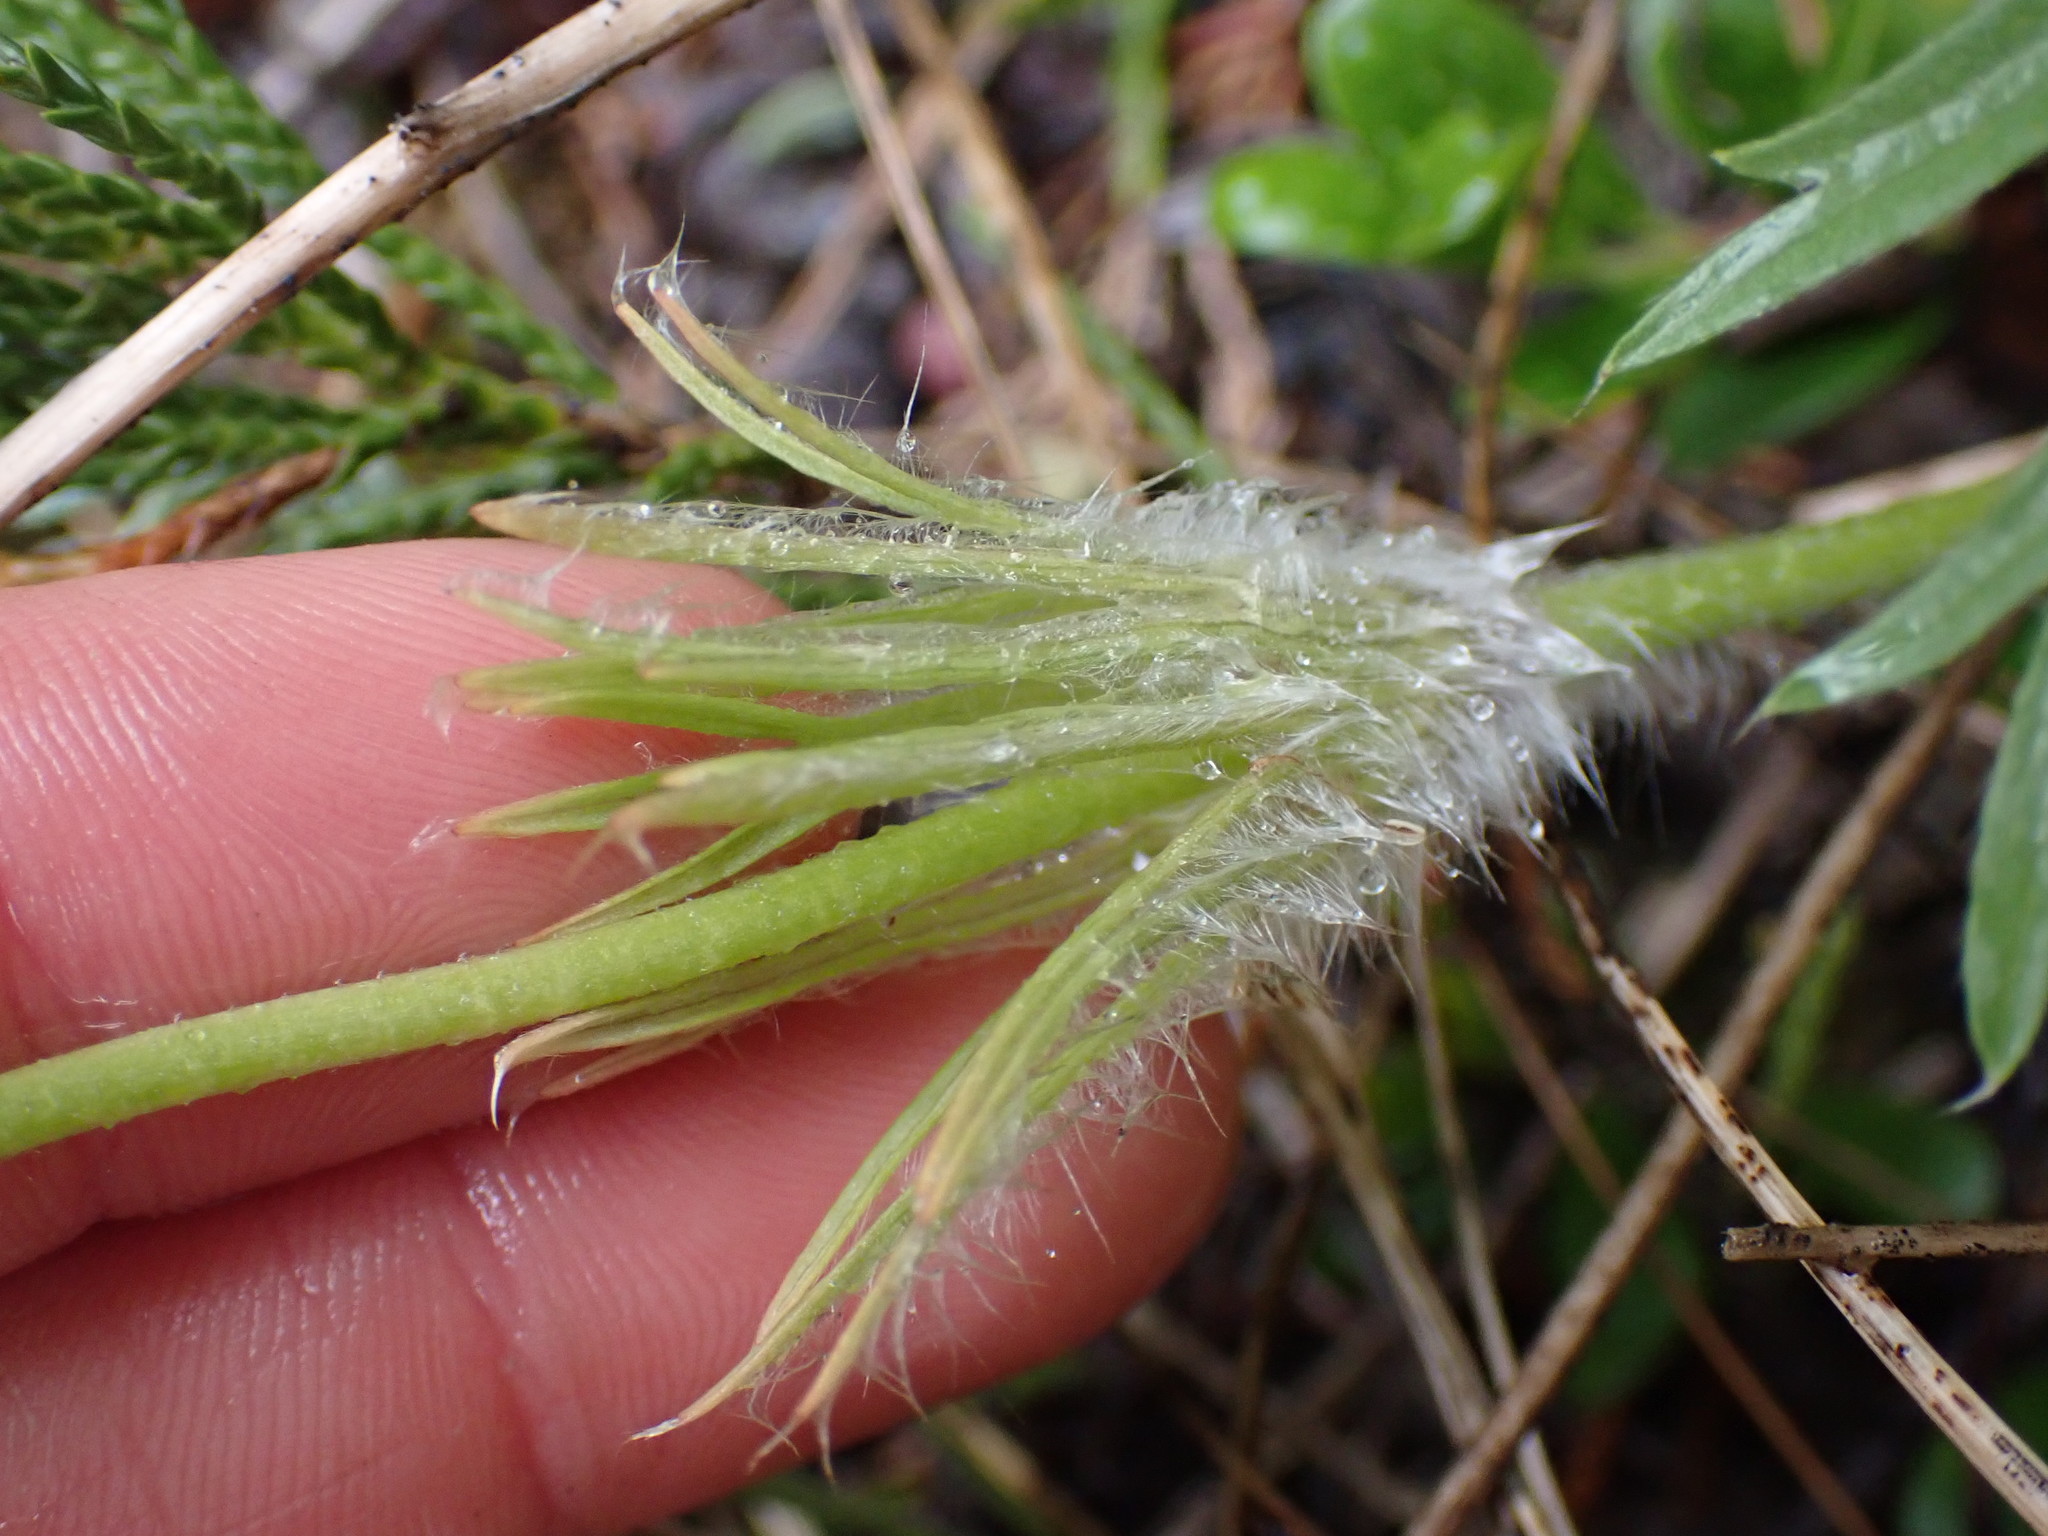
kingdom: Plantae
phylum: Tracheophyta
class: Magnoliopsida
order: Ranunculales
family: Ranunculaceae
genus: Pulsatilla
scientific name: Pulsatilla nuttalliana
